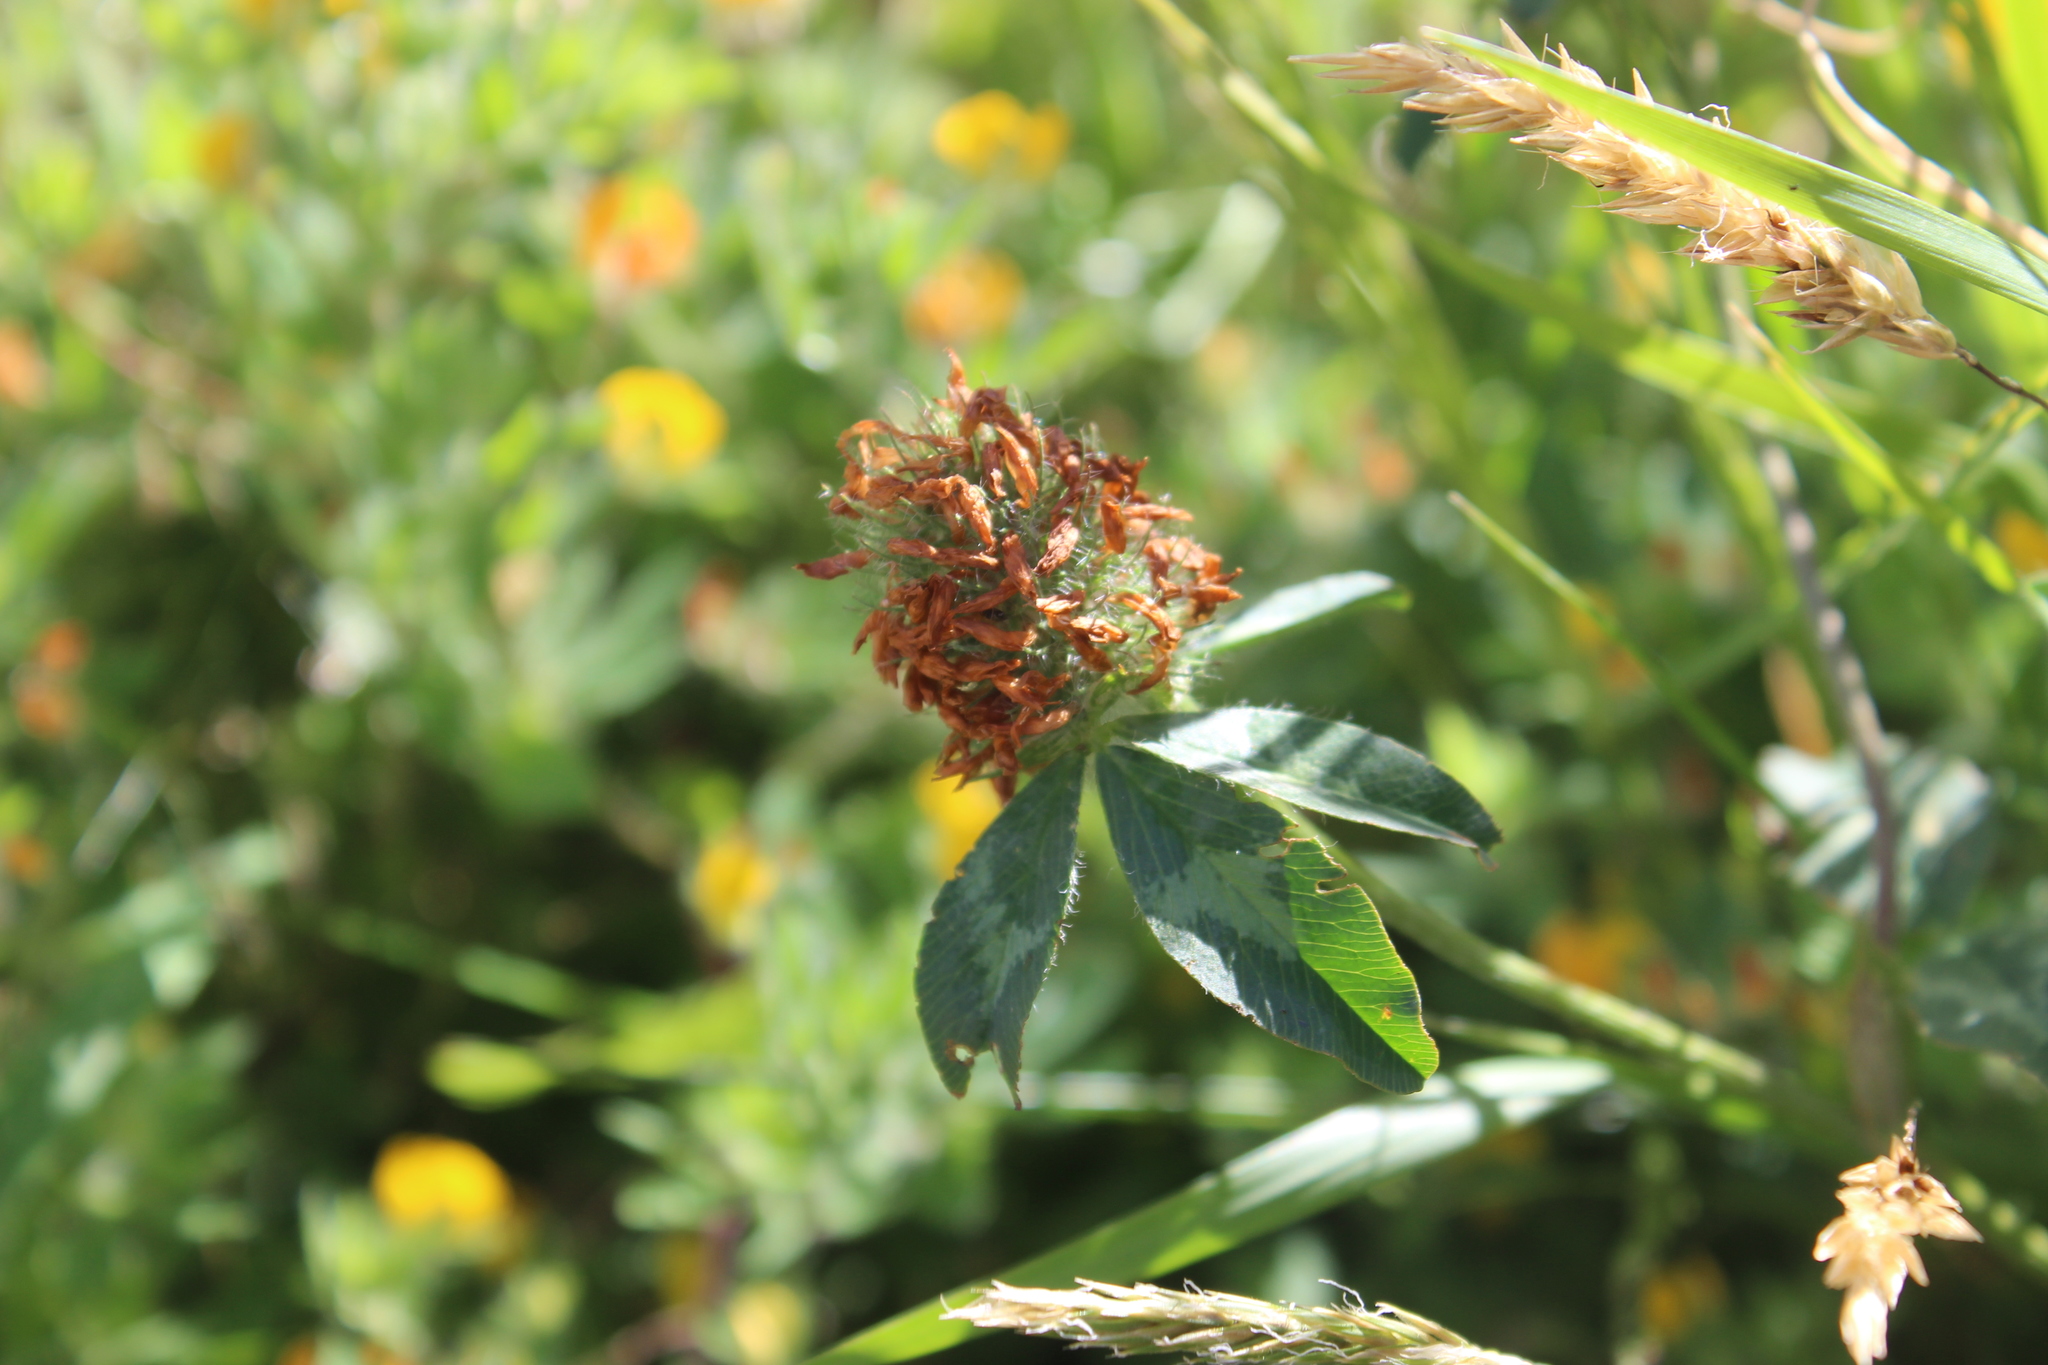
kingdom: Plantae
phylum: Tracheophyta
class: Magnoliopsida
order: Fabales
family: Fabaceae
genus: Trifolium
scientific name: Trifolium pratense
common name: Red clover
